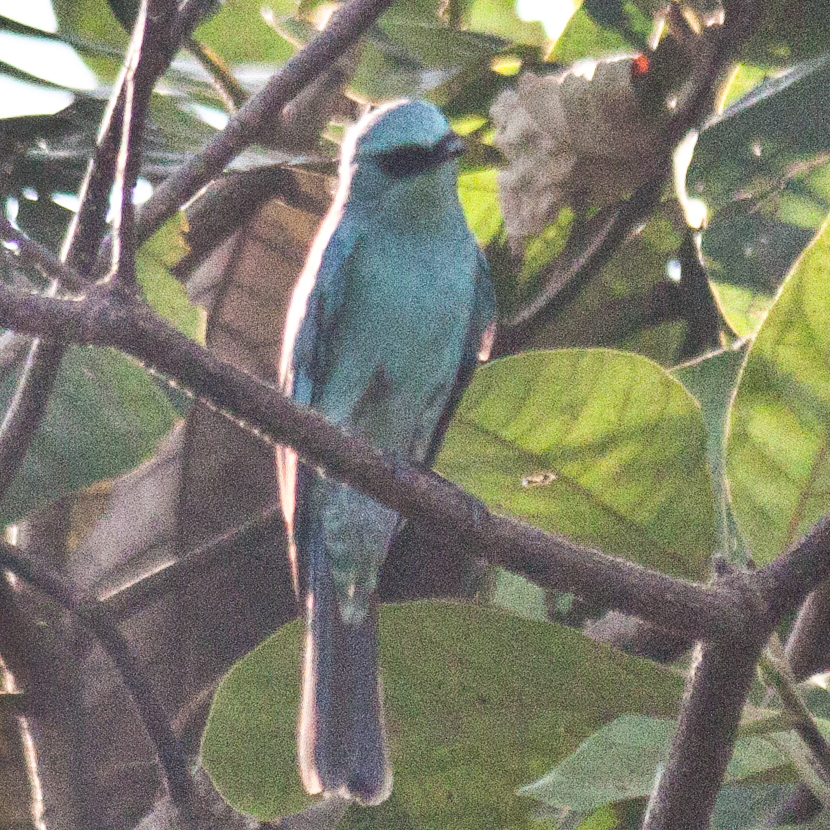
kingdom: Animalia
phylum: Chordata
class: Aves
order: Passeriformes
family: Muscicapidae
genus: Eumyias
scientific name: Eumyias thalassinus
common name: Verditer flycatcher
